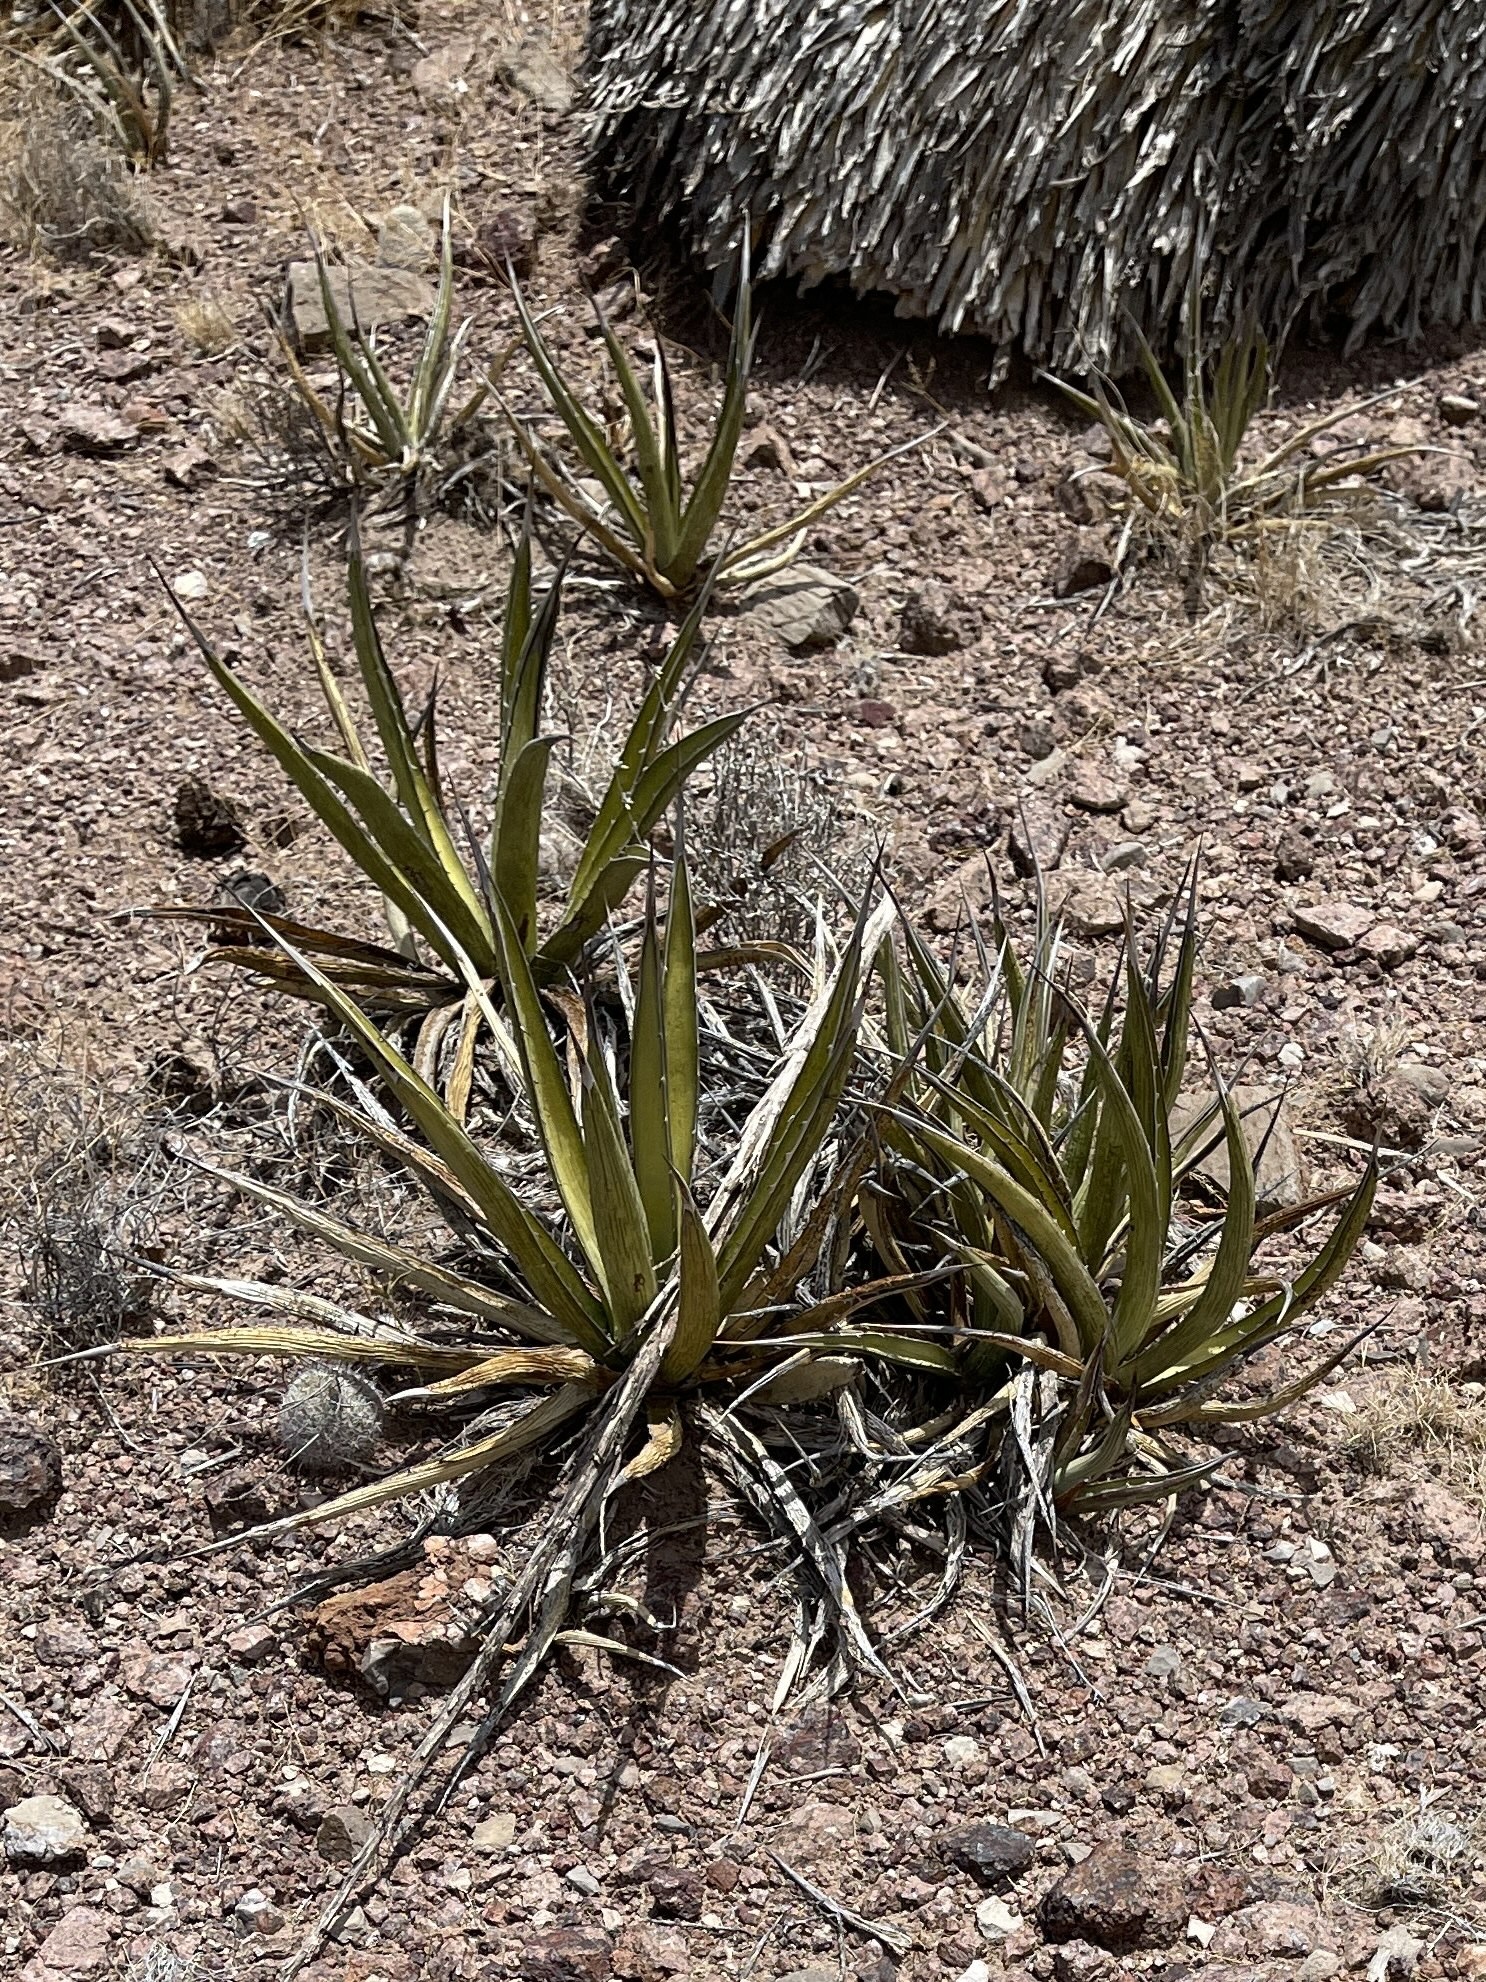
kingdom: Plantae
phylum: Tracheophyta
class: Liliopsida
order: Asparagales
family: Asparagaceae
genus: Agave
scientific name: Agave lechuguilla
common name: Lecheguilla agave
